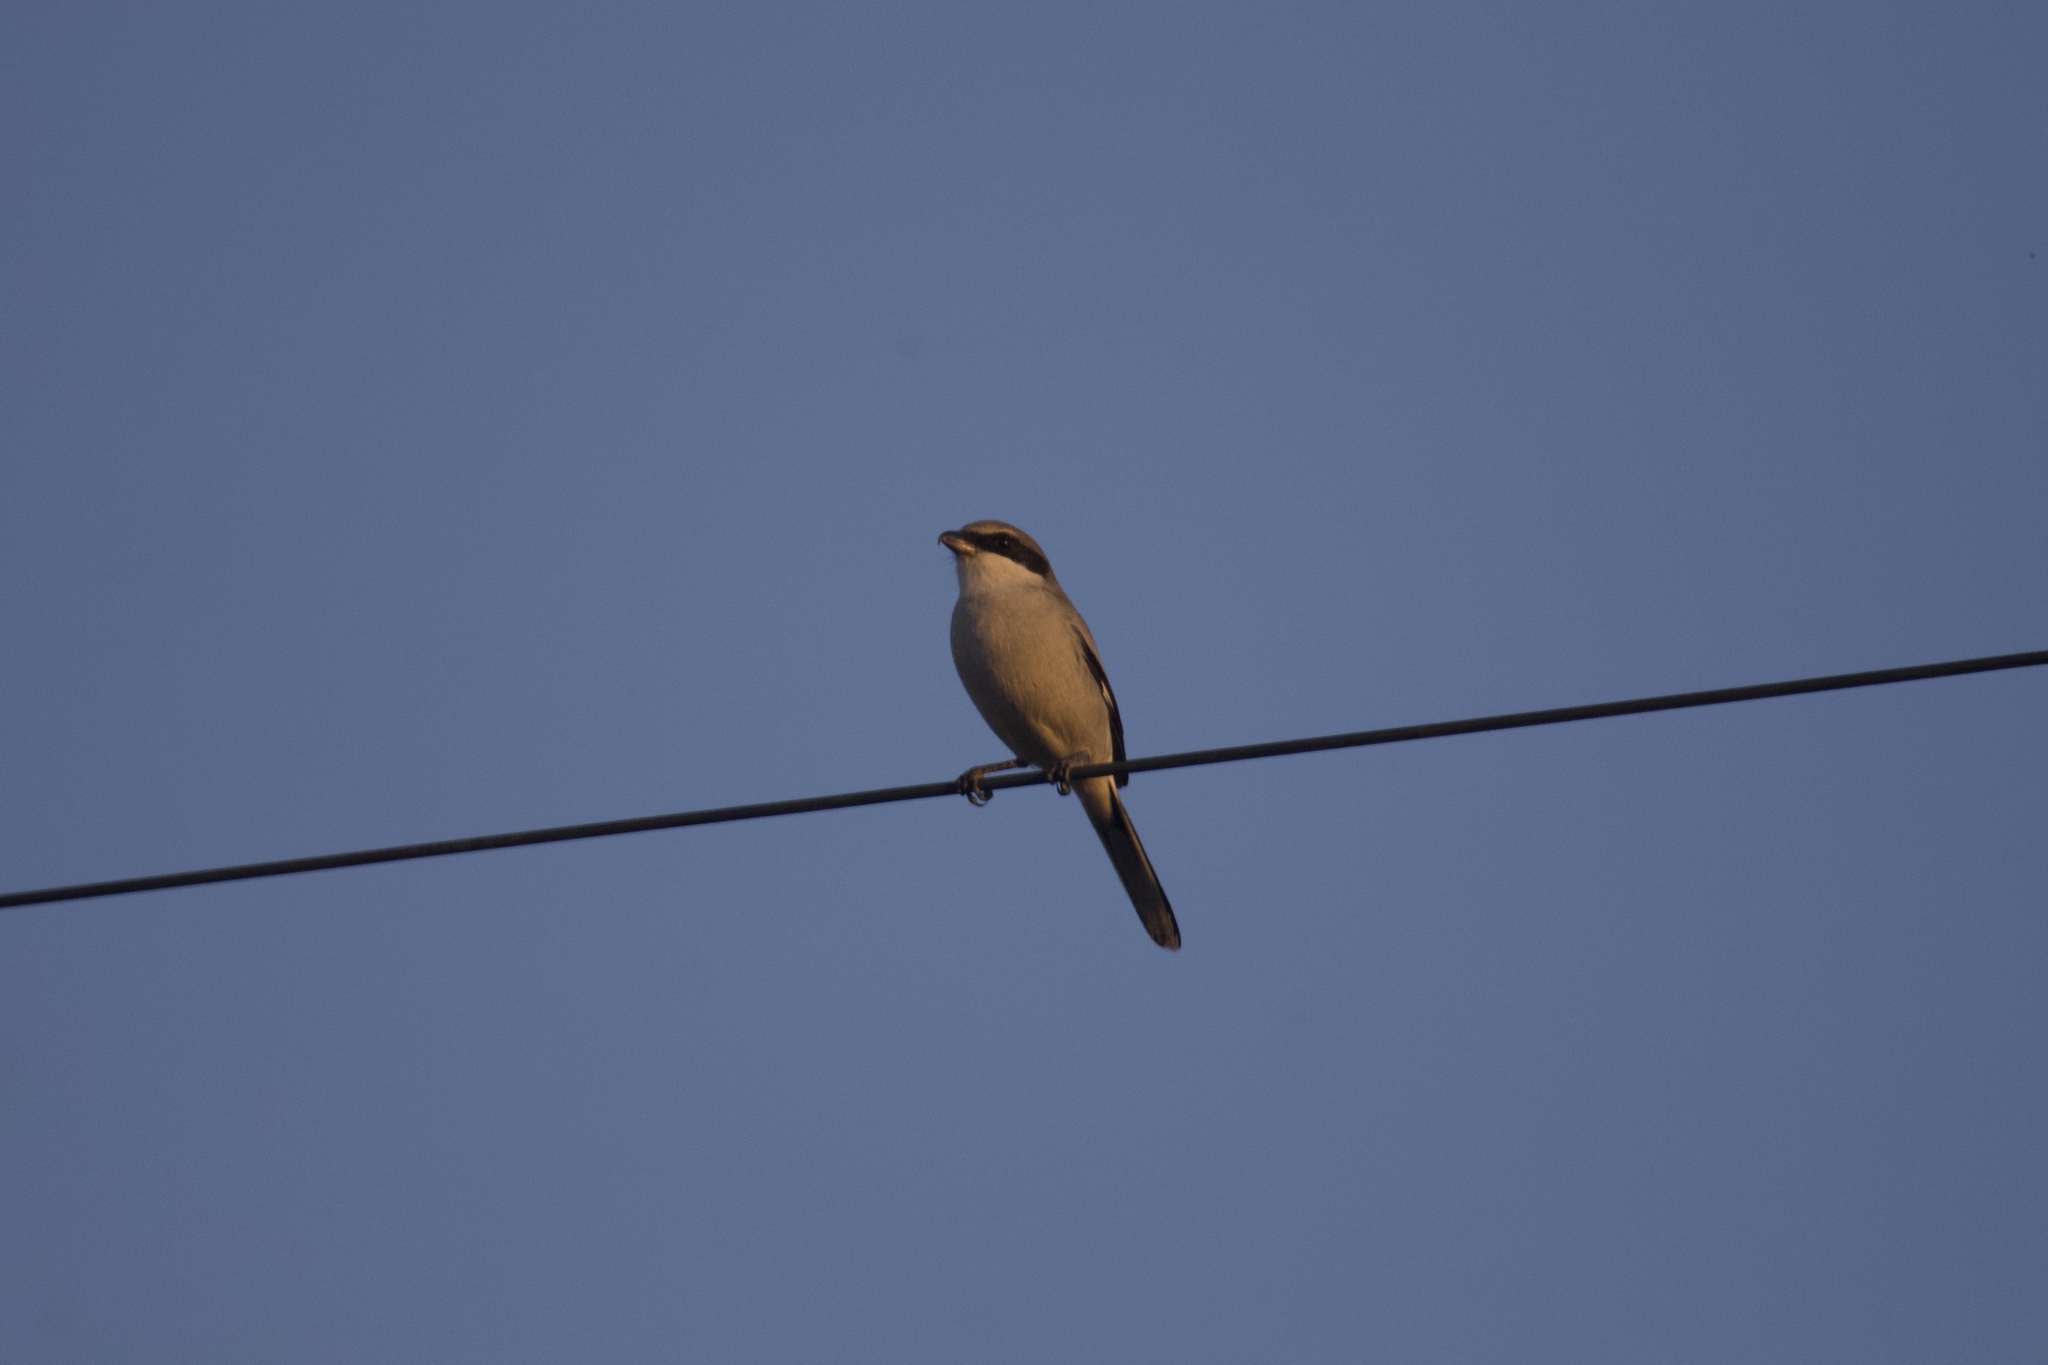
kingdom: Animalia
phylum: Chordata
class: Aves
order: Passeriformes
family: Laniidae
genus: Lanius
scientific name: Lanius ludovicianus
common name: Loggerhead shrike
